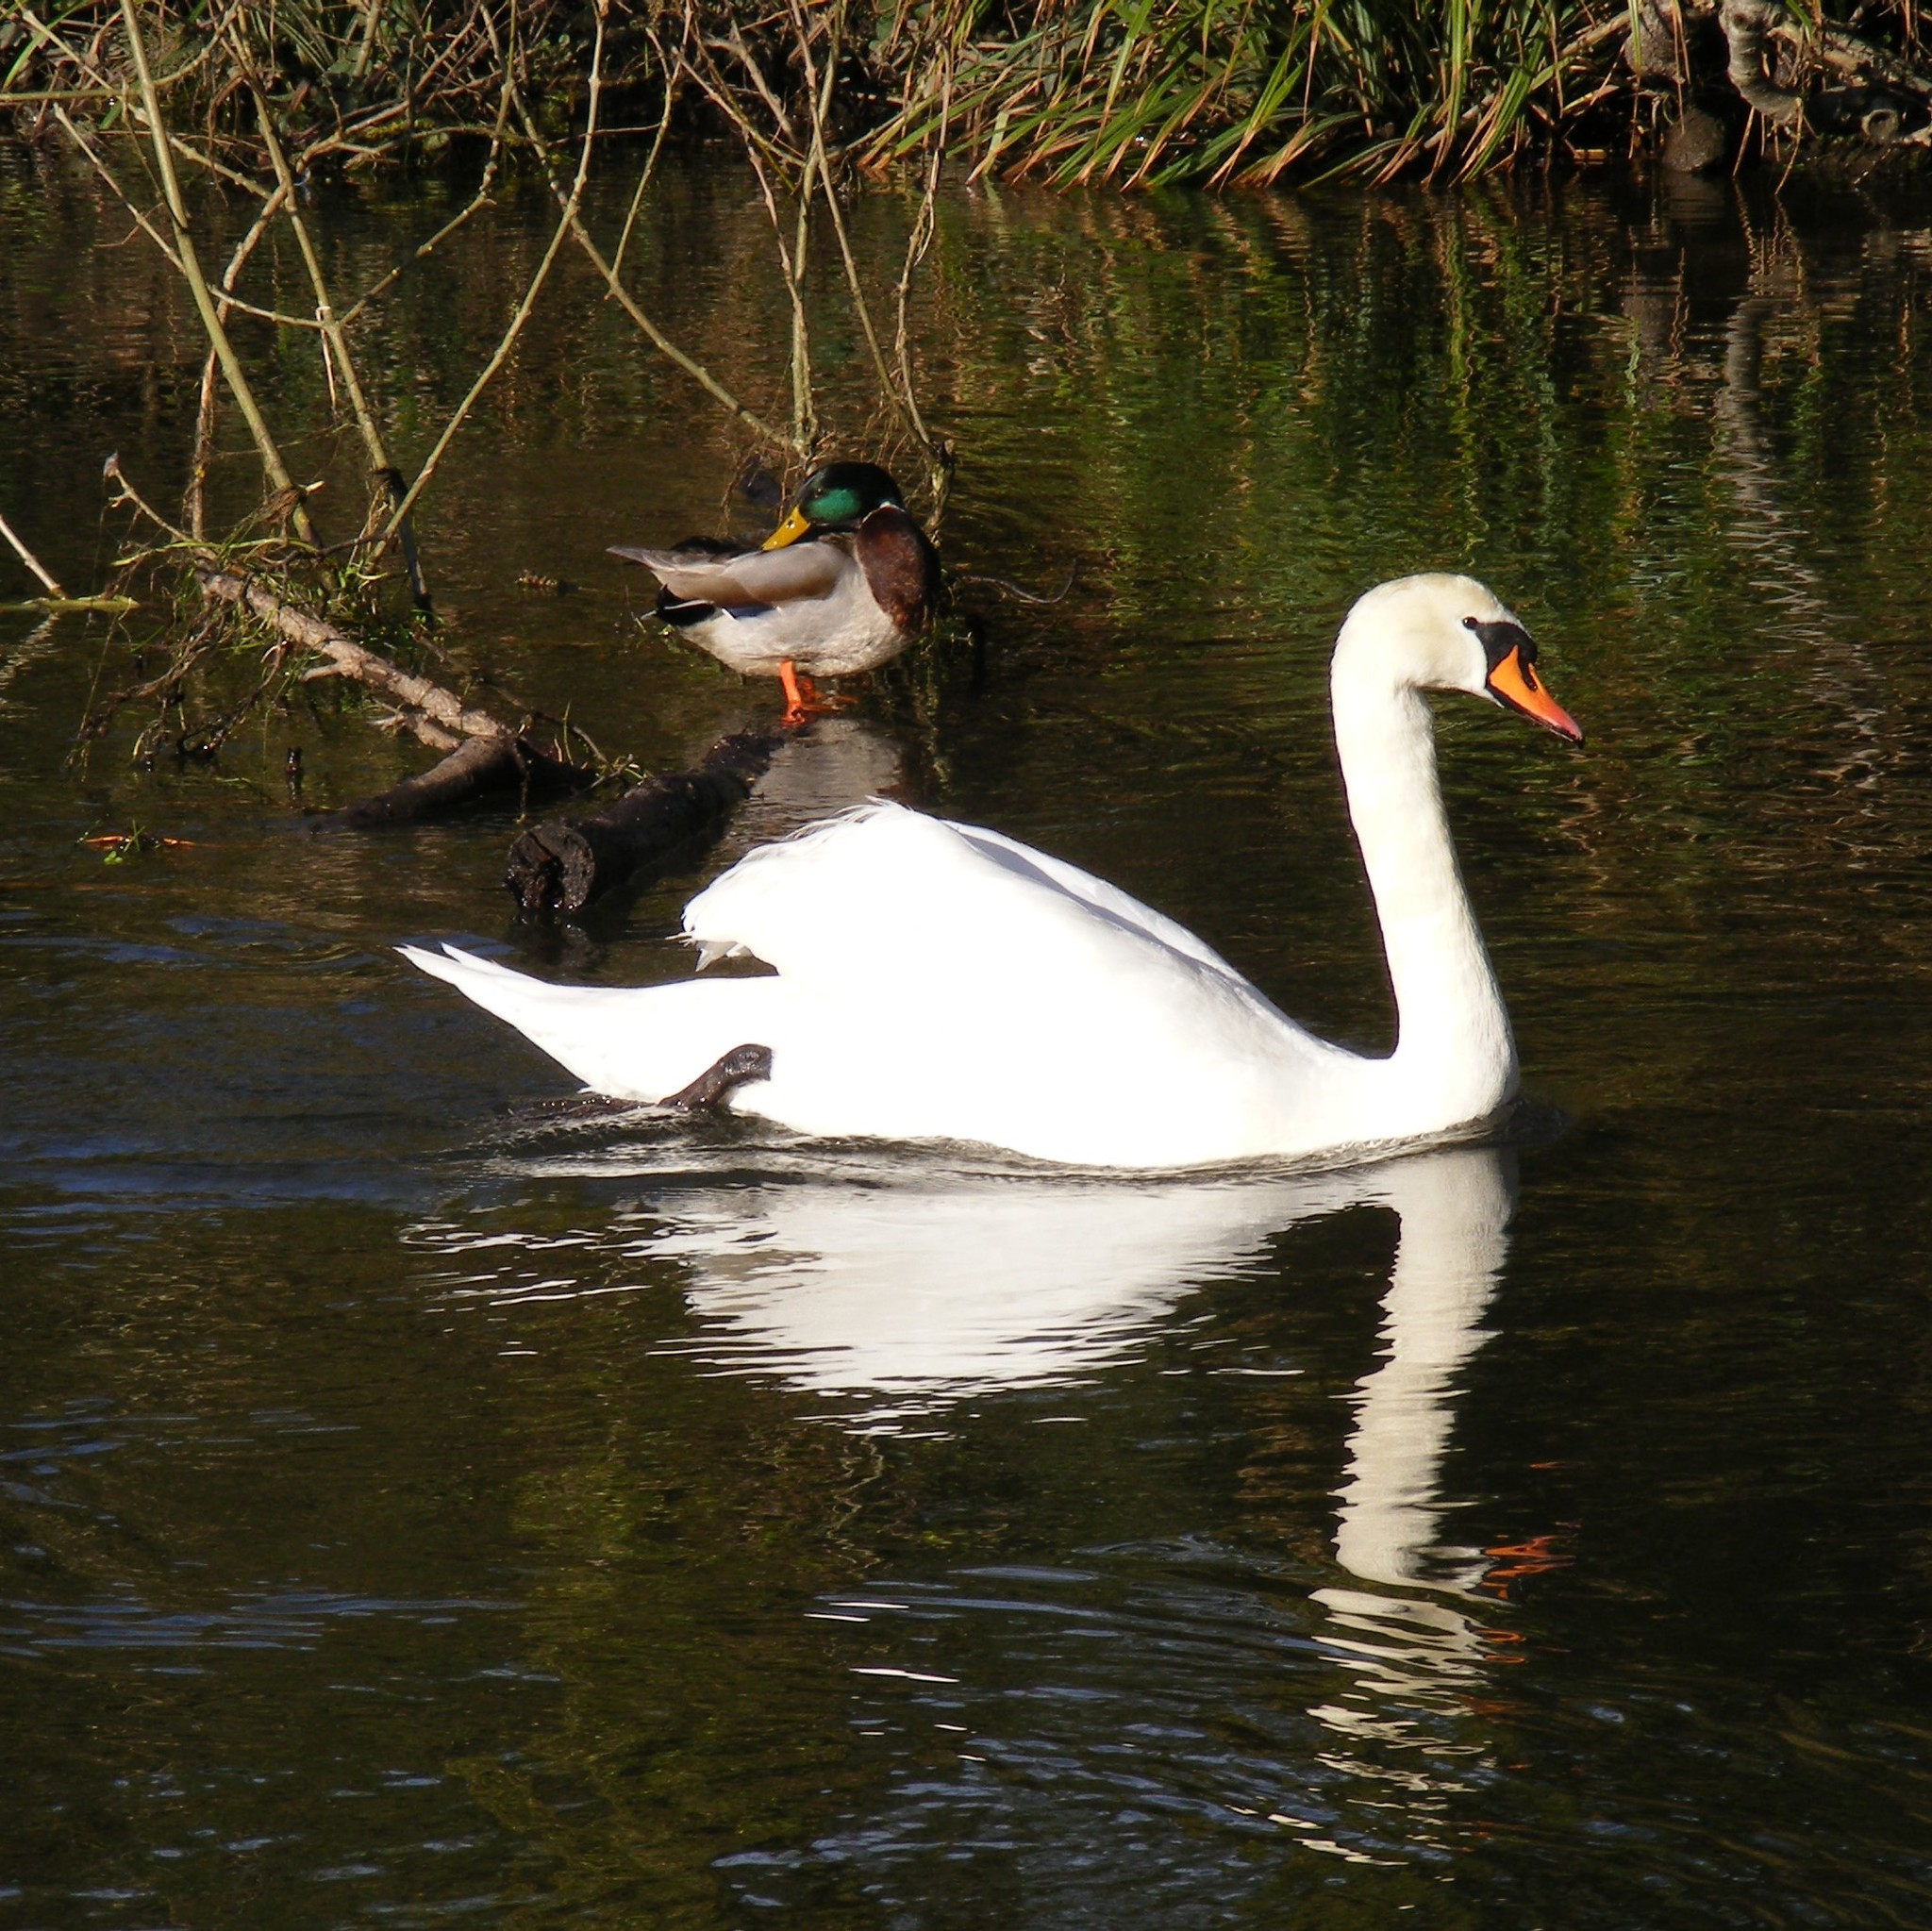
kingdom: Animalia
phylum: Chordata
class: Aves
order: Anseriformes
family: Anatidae
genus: Cygnus
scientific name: Cygnus olor
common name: Mute swan
